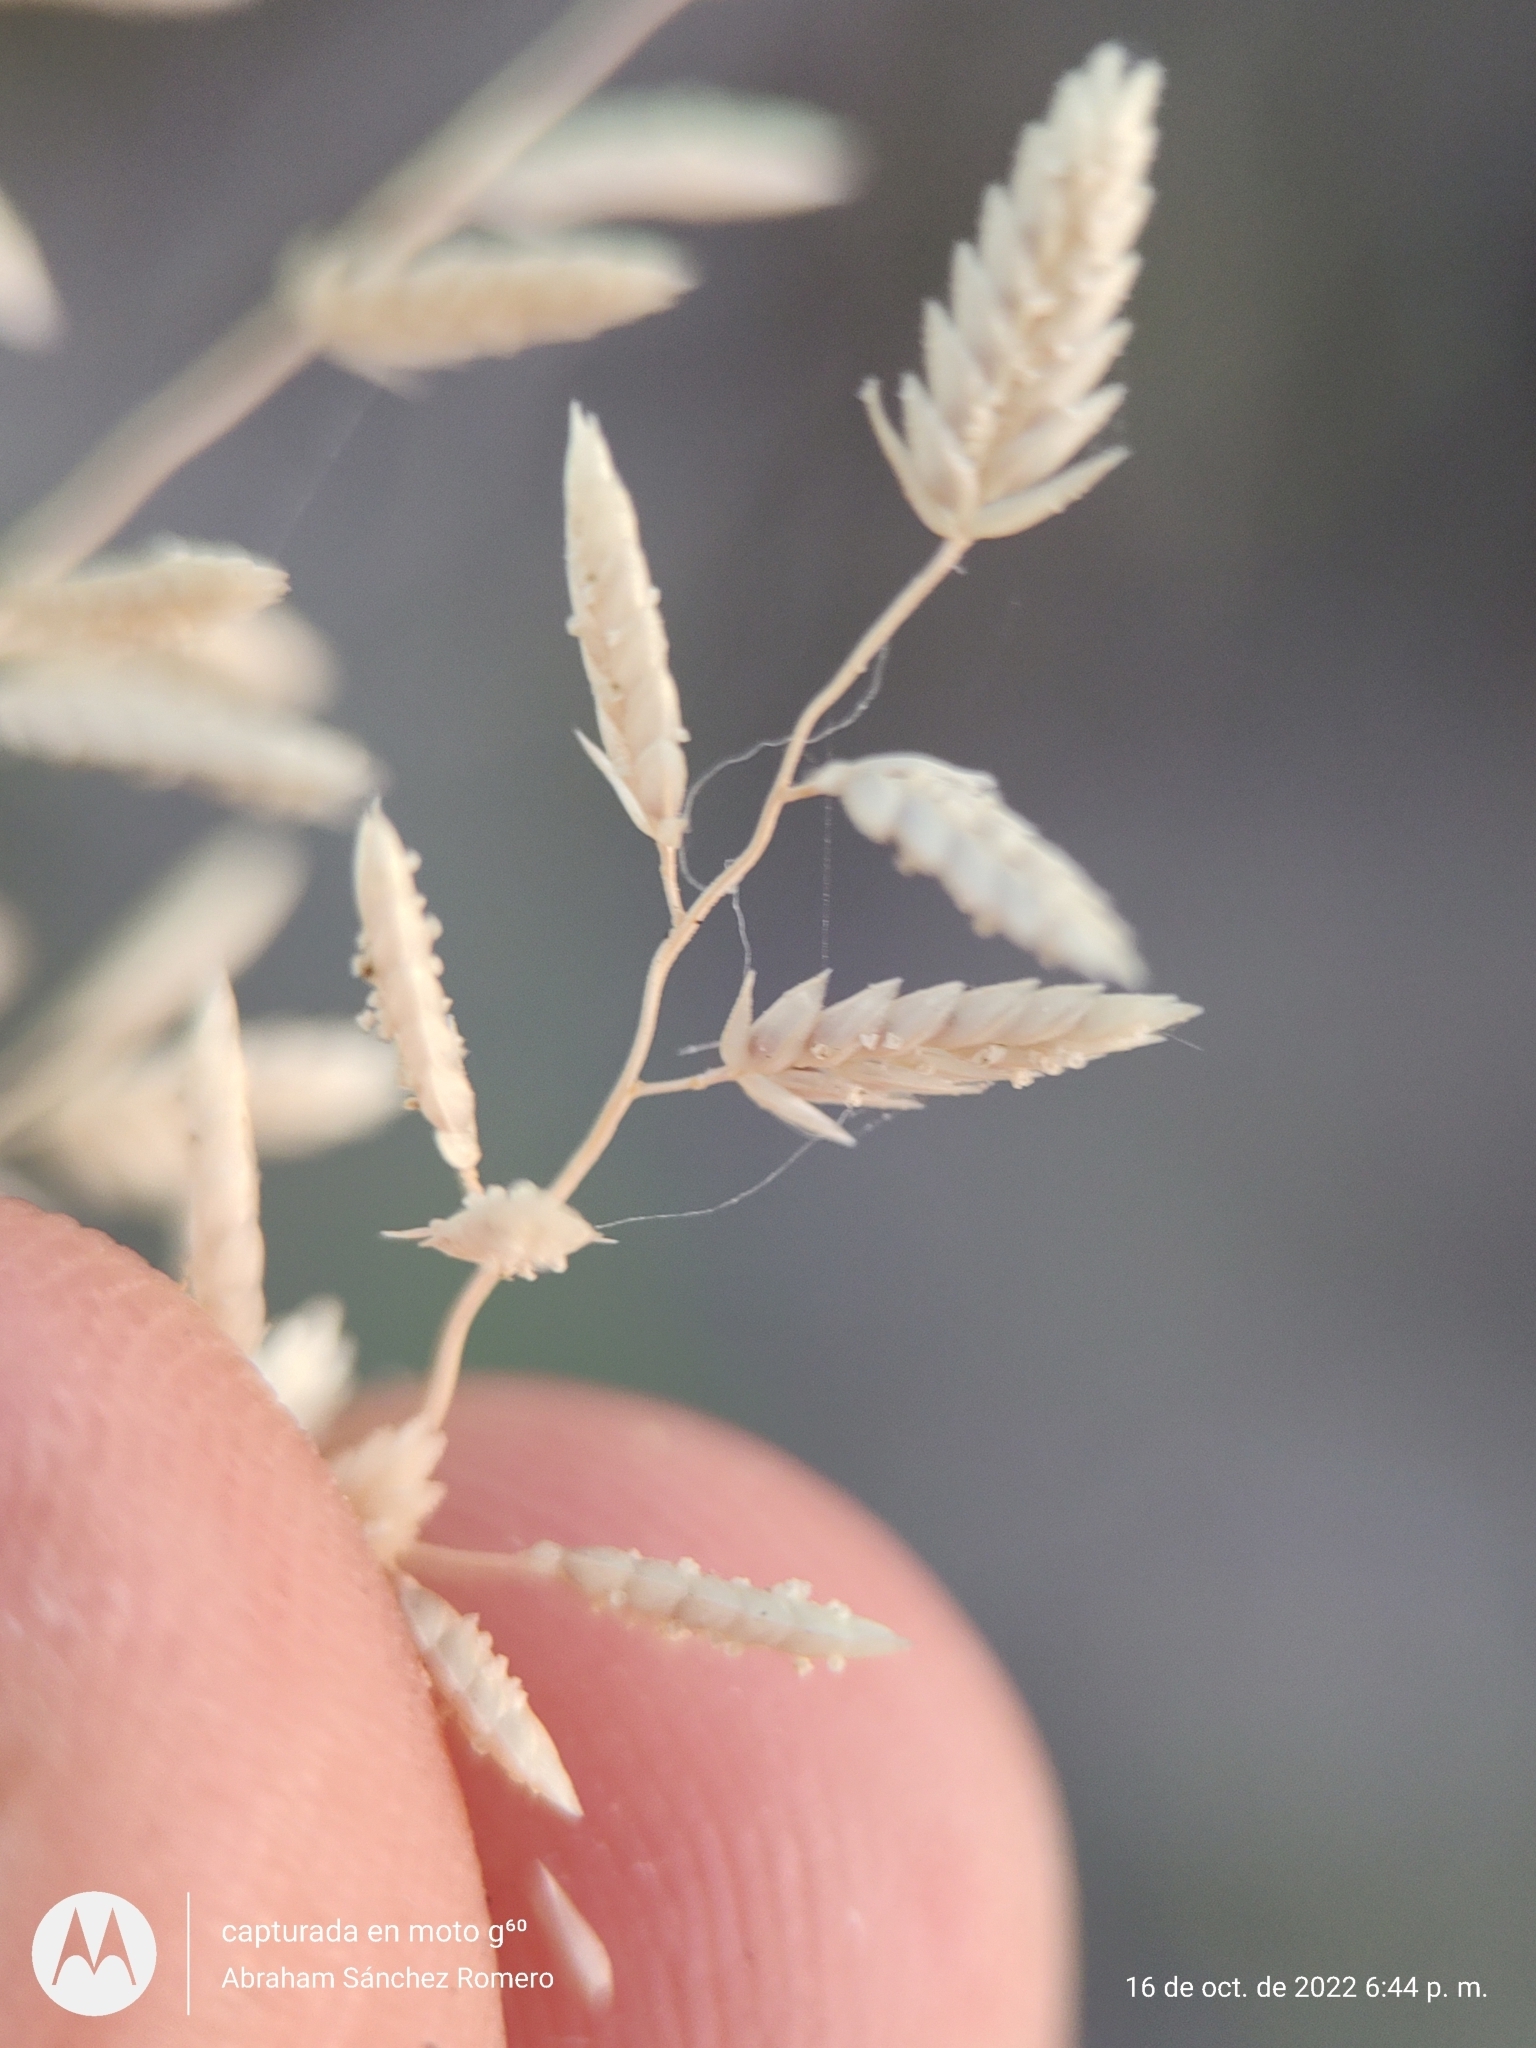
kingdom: Plantae
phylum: Tracheophyta
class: Liliopsida
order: Poales
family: Poaceae
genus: Eragrostis
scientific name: Eragrostis cilianensis
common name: Stinkgrass
